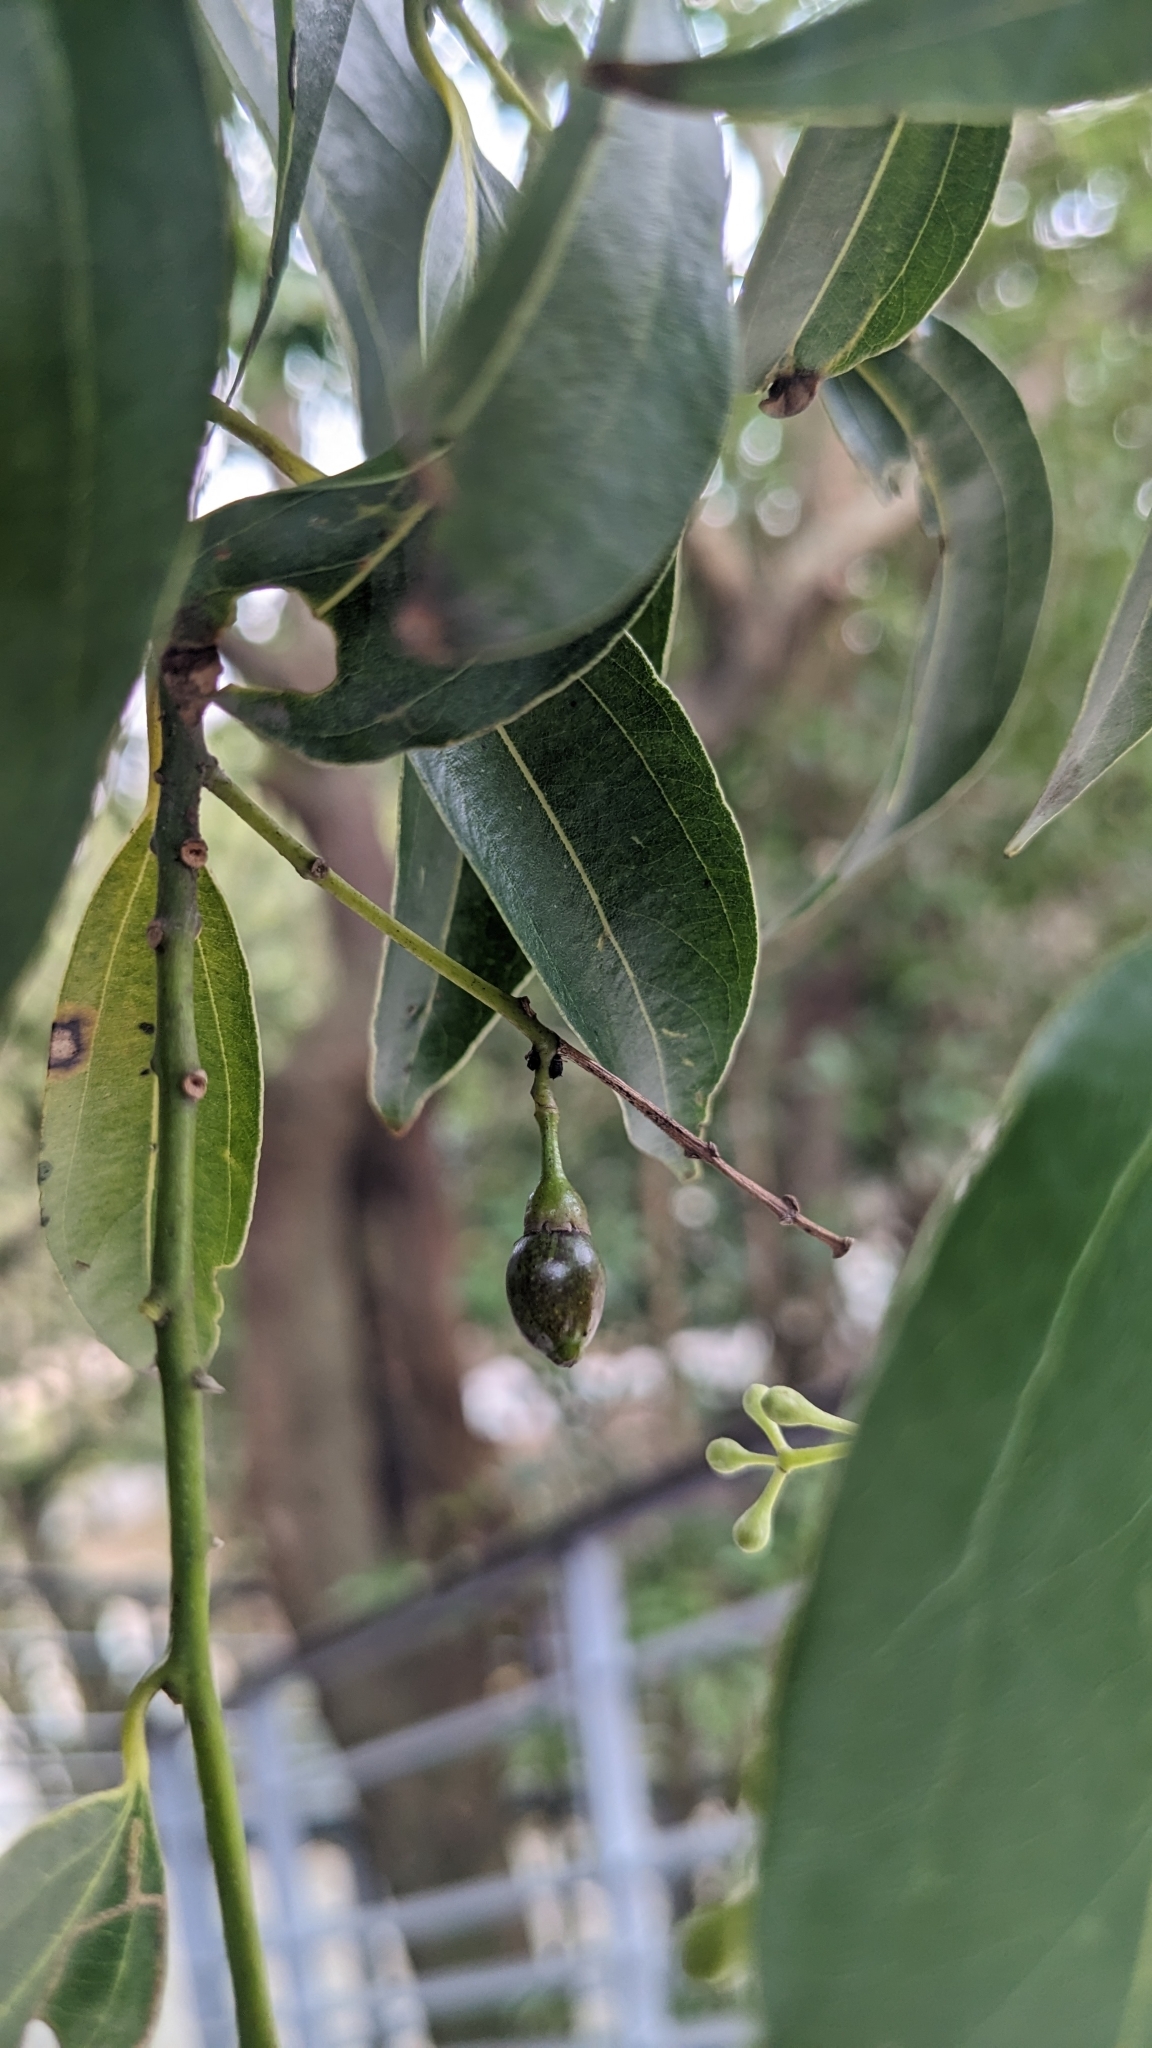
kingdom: Plantae
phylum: Tracheophyta
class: Magnoliopsida
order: Laurales
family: Lauraceae
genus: Cinnamomum
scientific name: Cinnamomum burmanni
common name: Padang cassia
